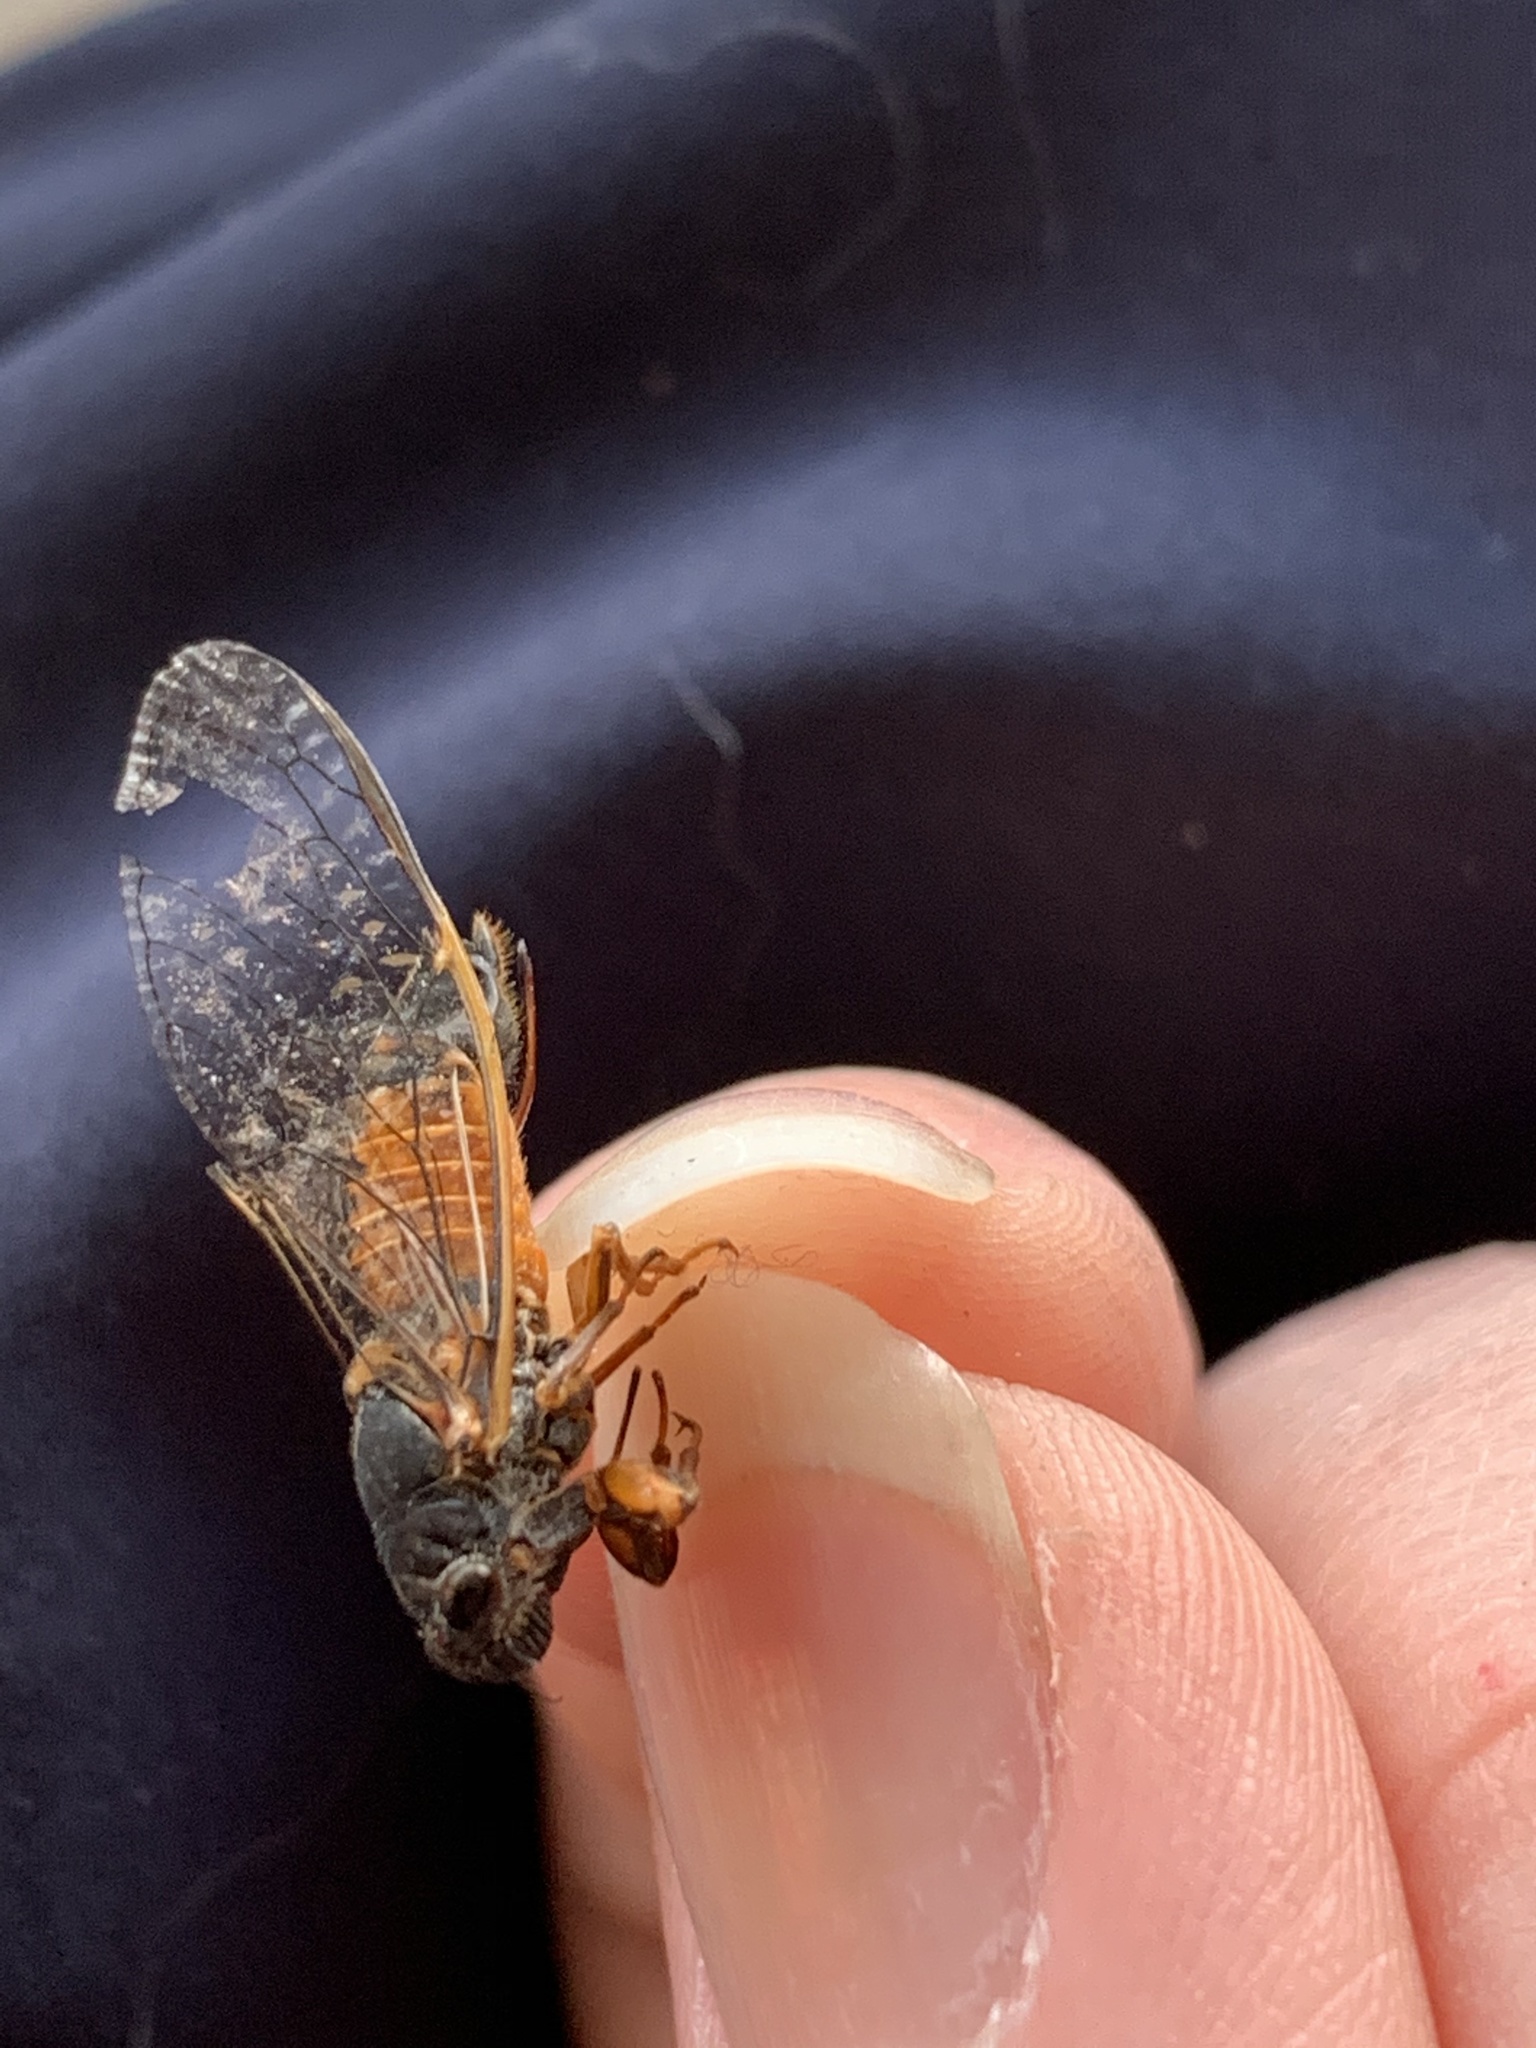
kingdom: Animalia
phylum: Arthropoda
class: Insecta
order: Hemiptera
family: Cicadidae
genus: Yoyetta
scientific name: Yoyetta landsboroughi
